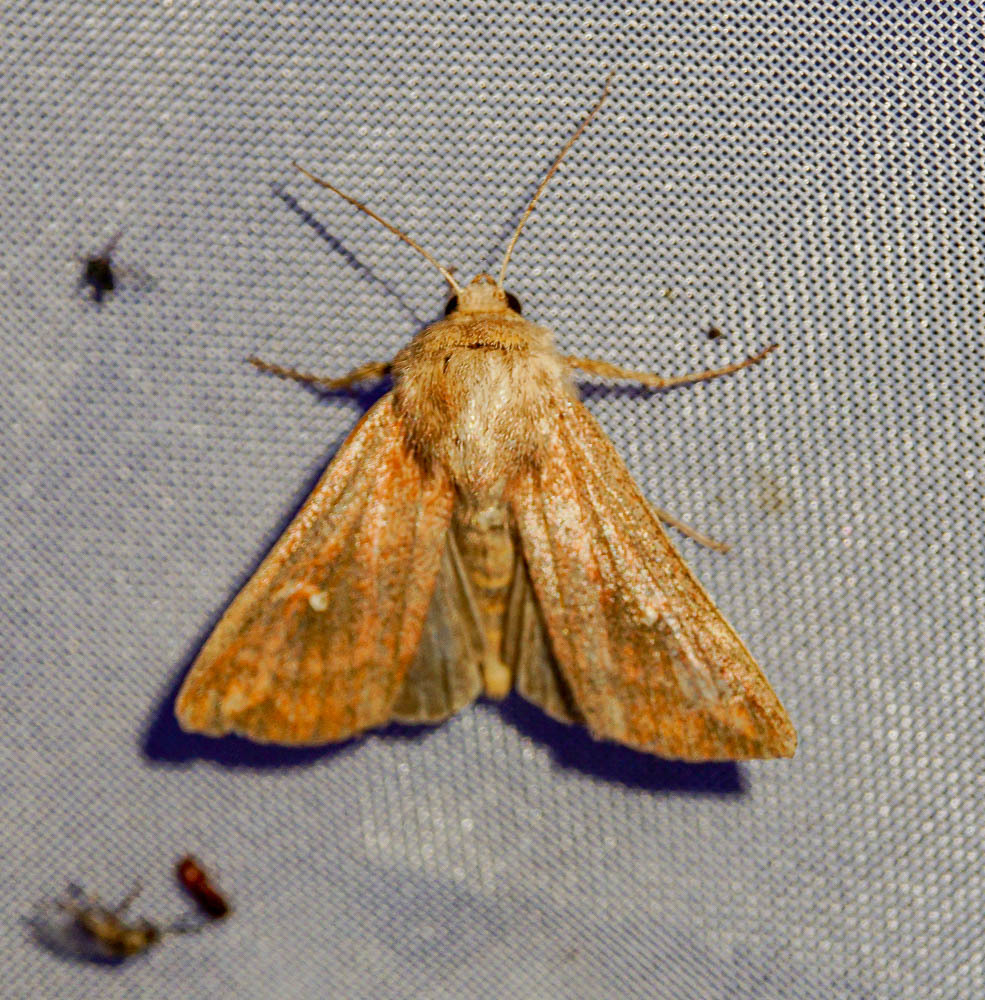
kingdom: Animalia
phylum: Arthropoda
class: Insecta
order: Lepidoptera
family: Noctuidae
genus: Mythimna
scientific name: Mythimna albipuncta
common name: White-point
